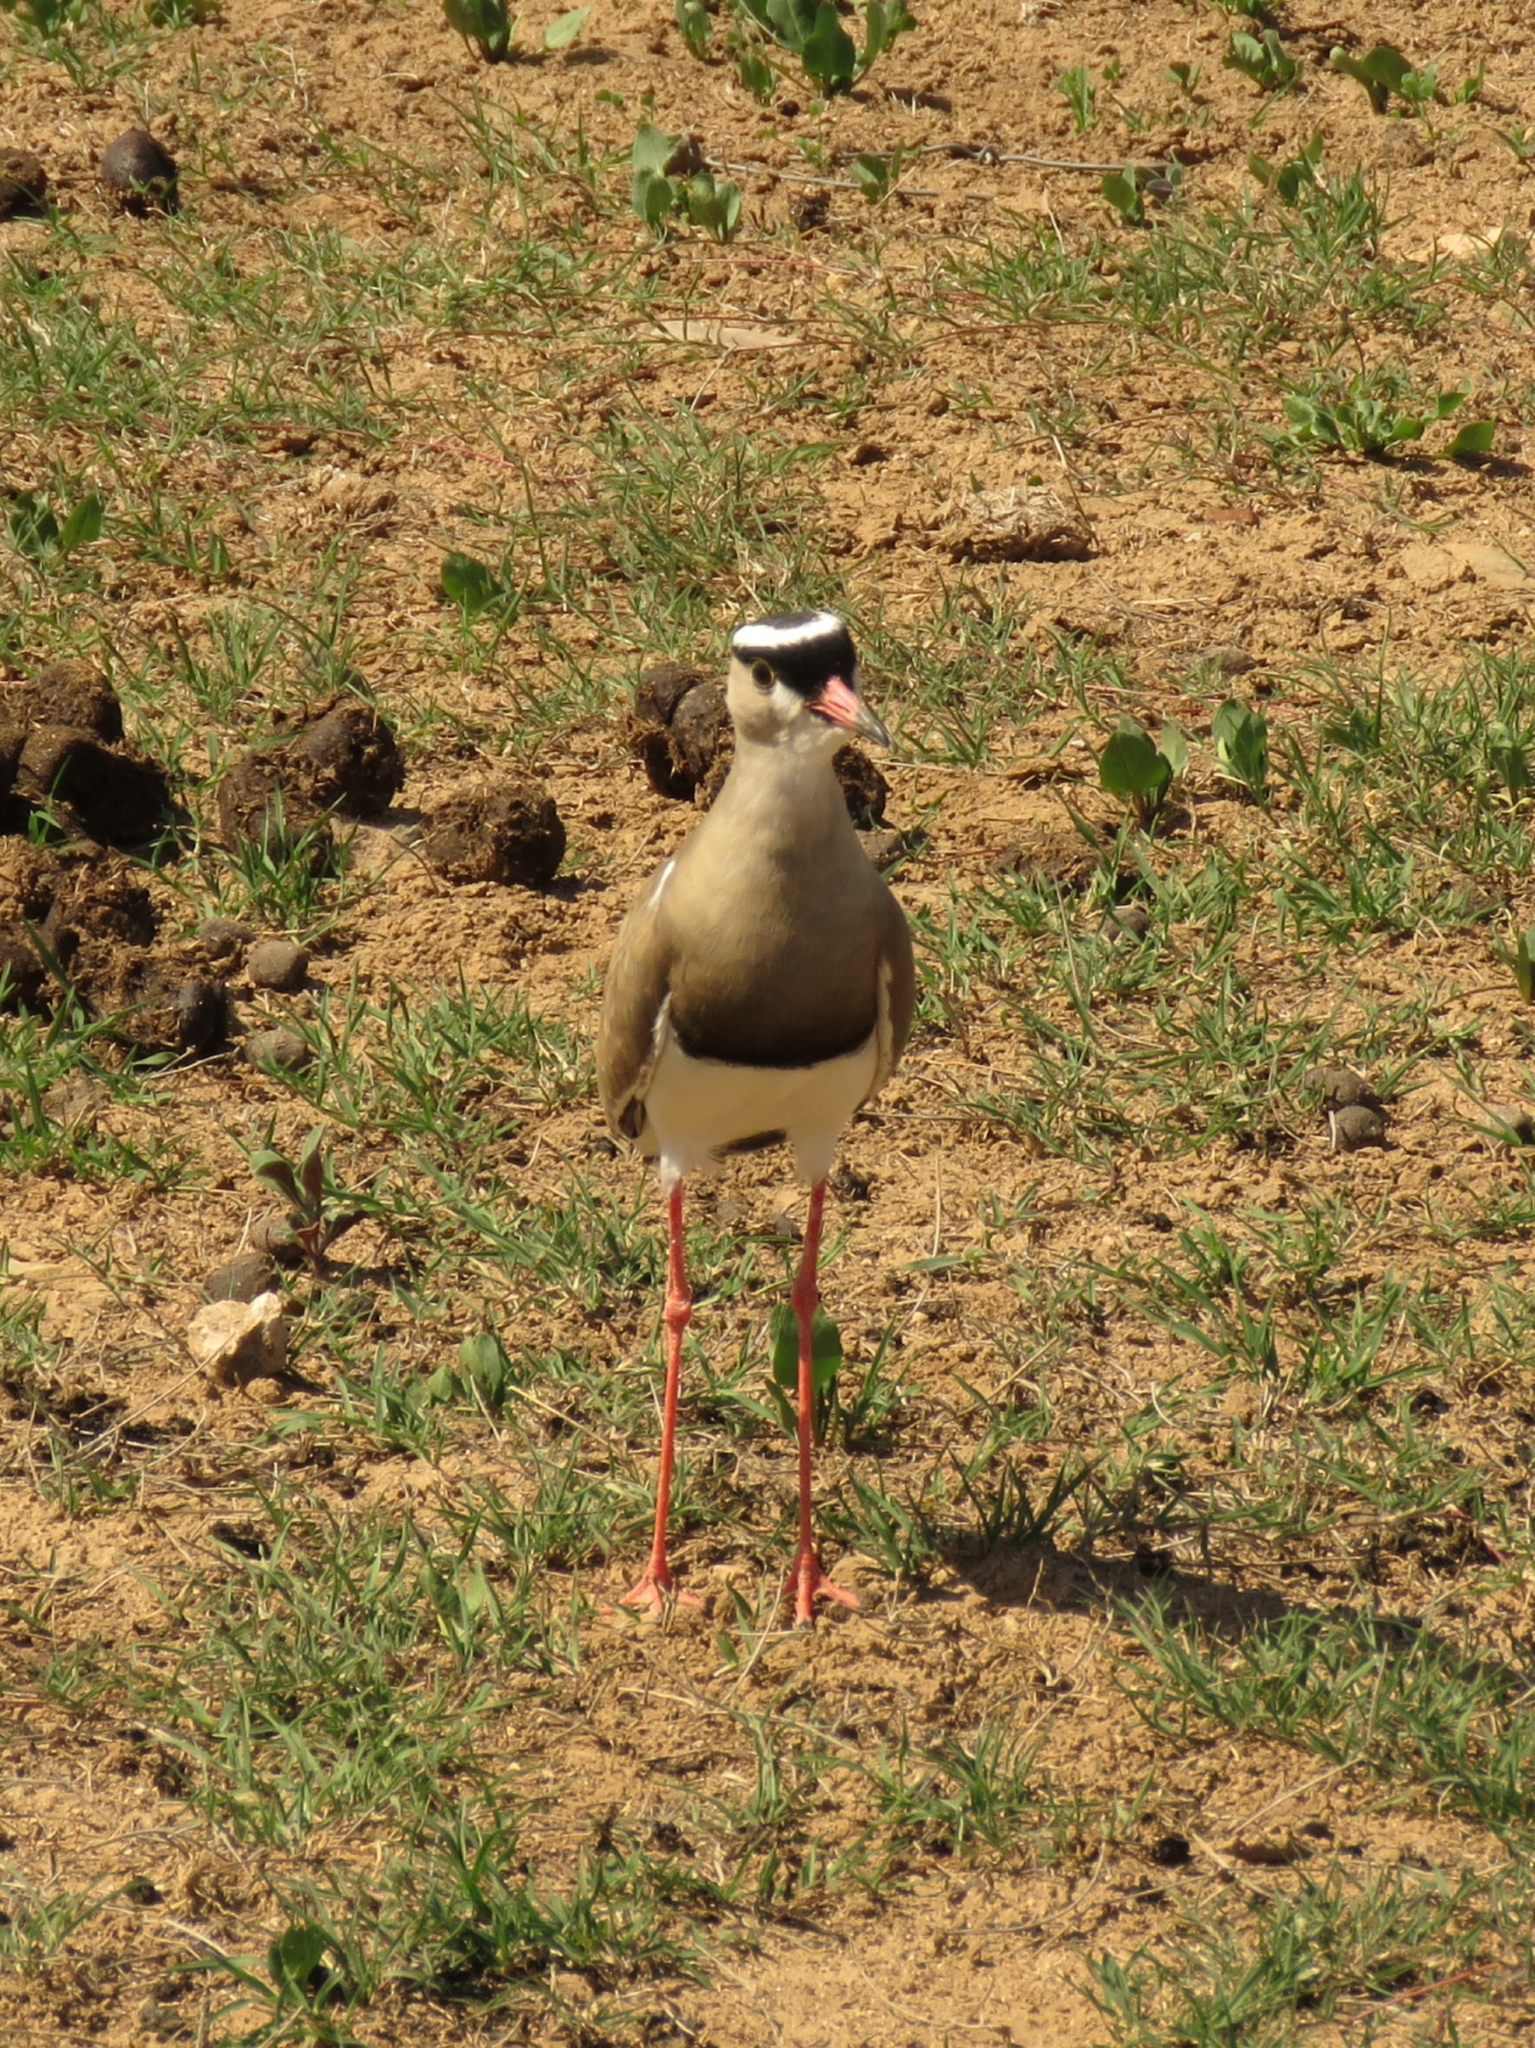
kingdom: Animalia
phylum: Chordata
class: Aves
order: Charadriiformes
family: Charadriidae
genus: Vanellus
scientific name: Vanellus coronatus
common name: Crowned lapwing
